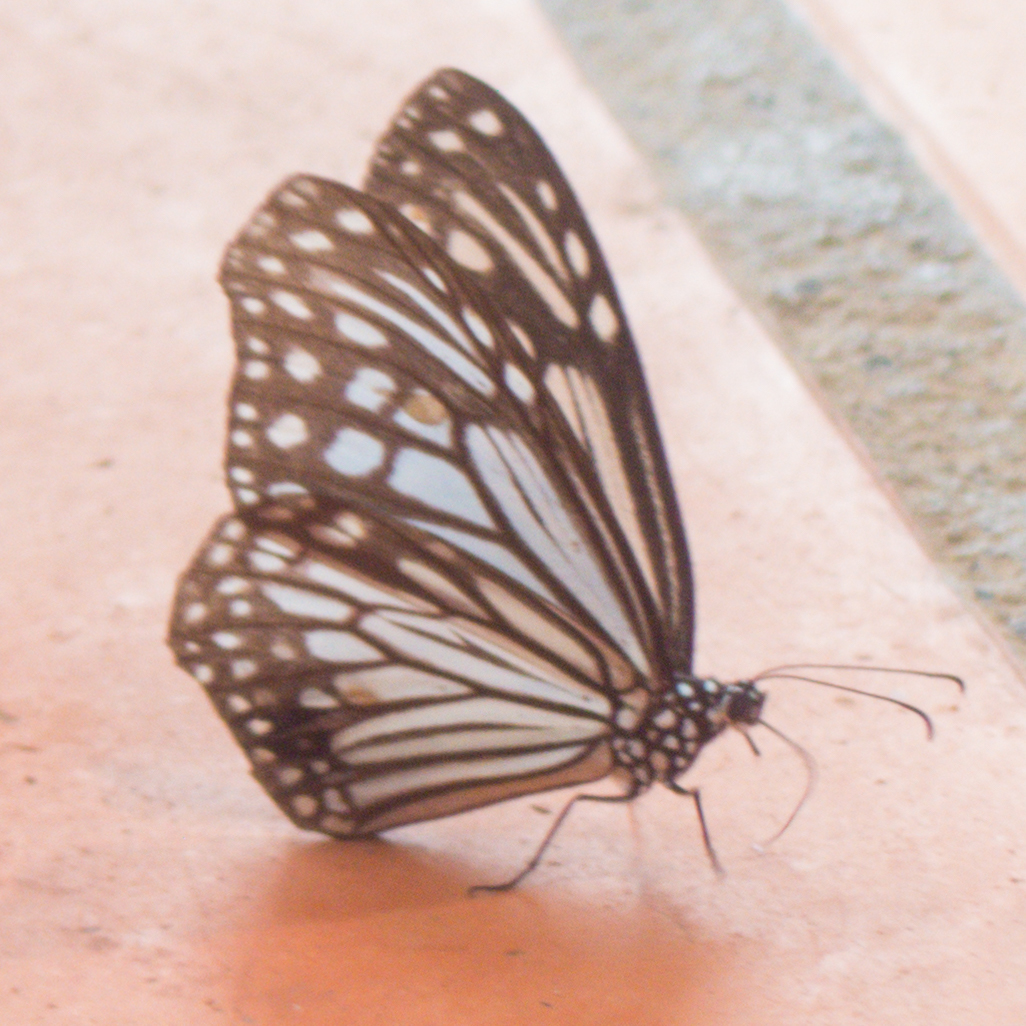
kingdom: Animalia
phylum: Arthropoda
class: Insecta
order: Lepidoptera
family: Nymphalidae
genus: Parantica
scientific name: Parantica aglea
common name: Glassy tiger
